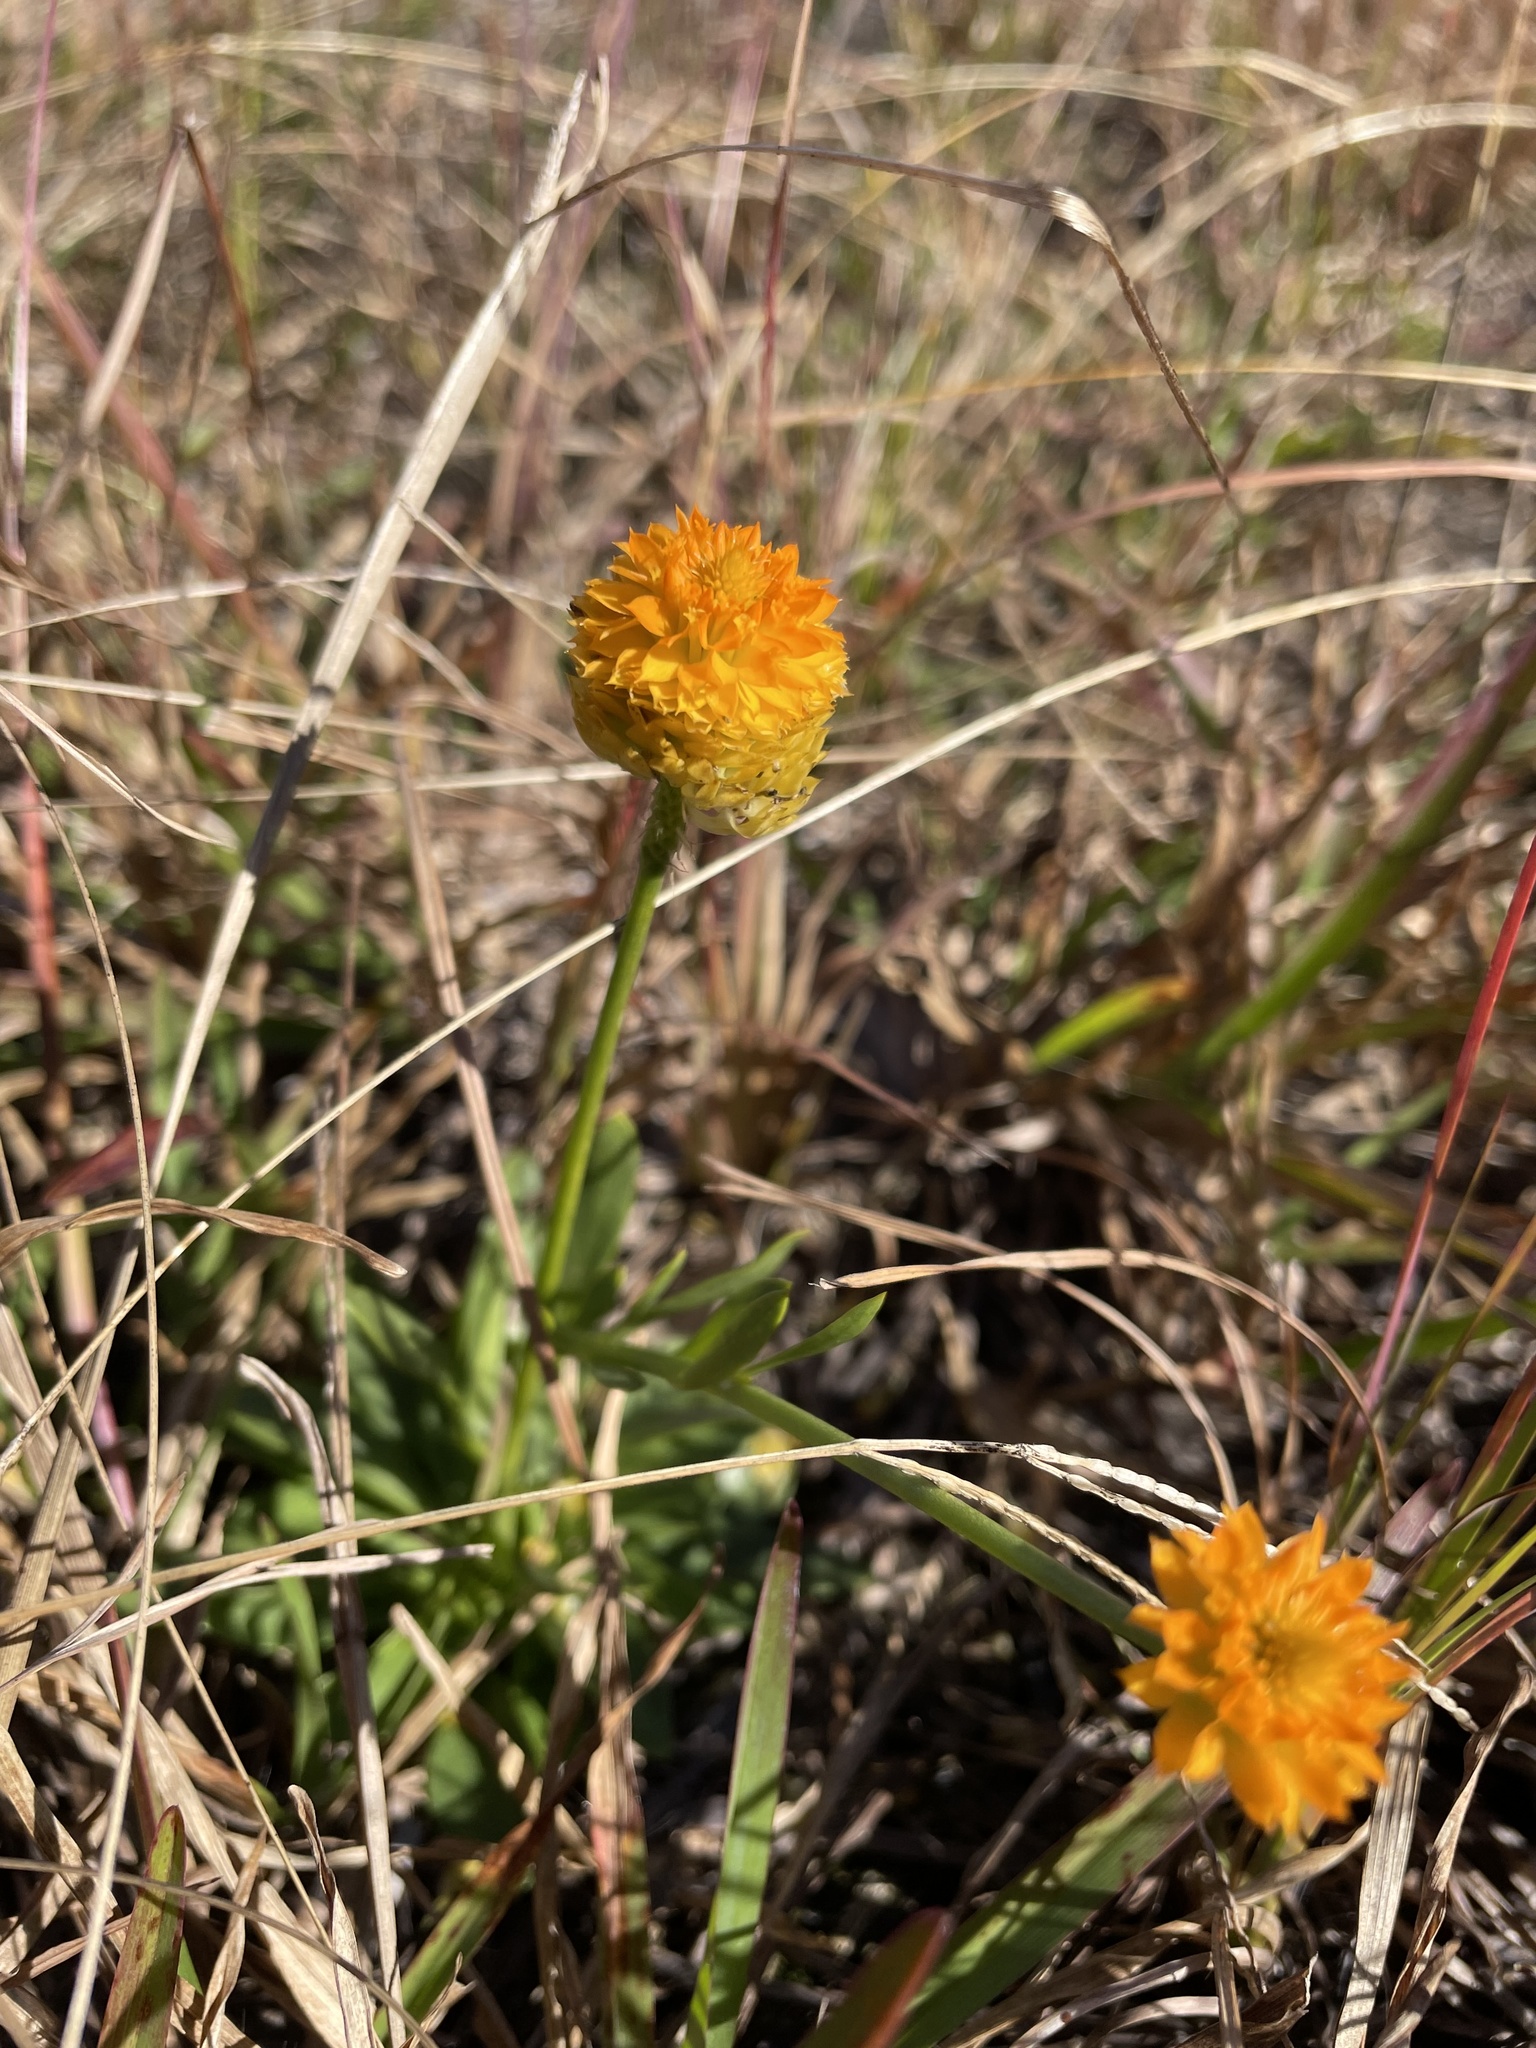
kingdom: Plantae
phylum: Tracheophyta
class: Magnoliopsida
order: Fabales
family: Polygalaceae
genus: Polygala
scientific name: Polygala lutea
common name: Orange milkwort
